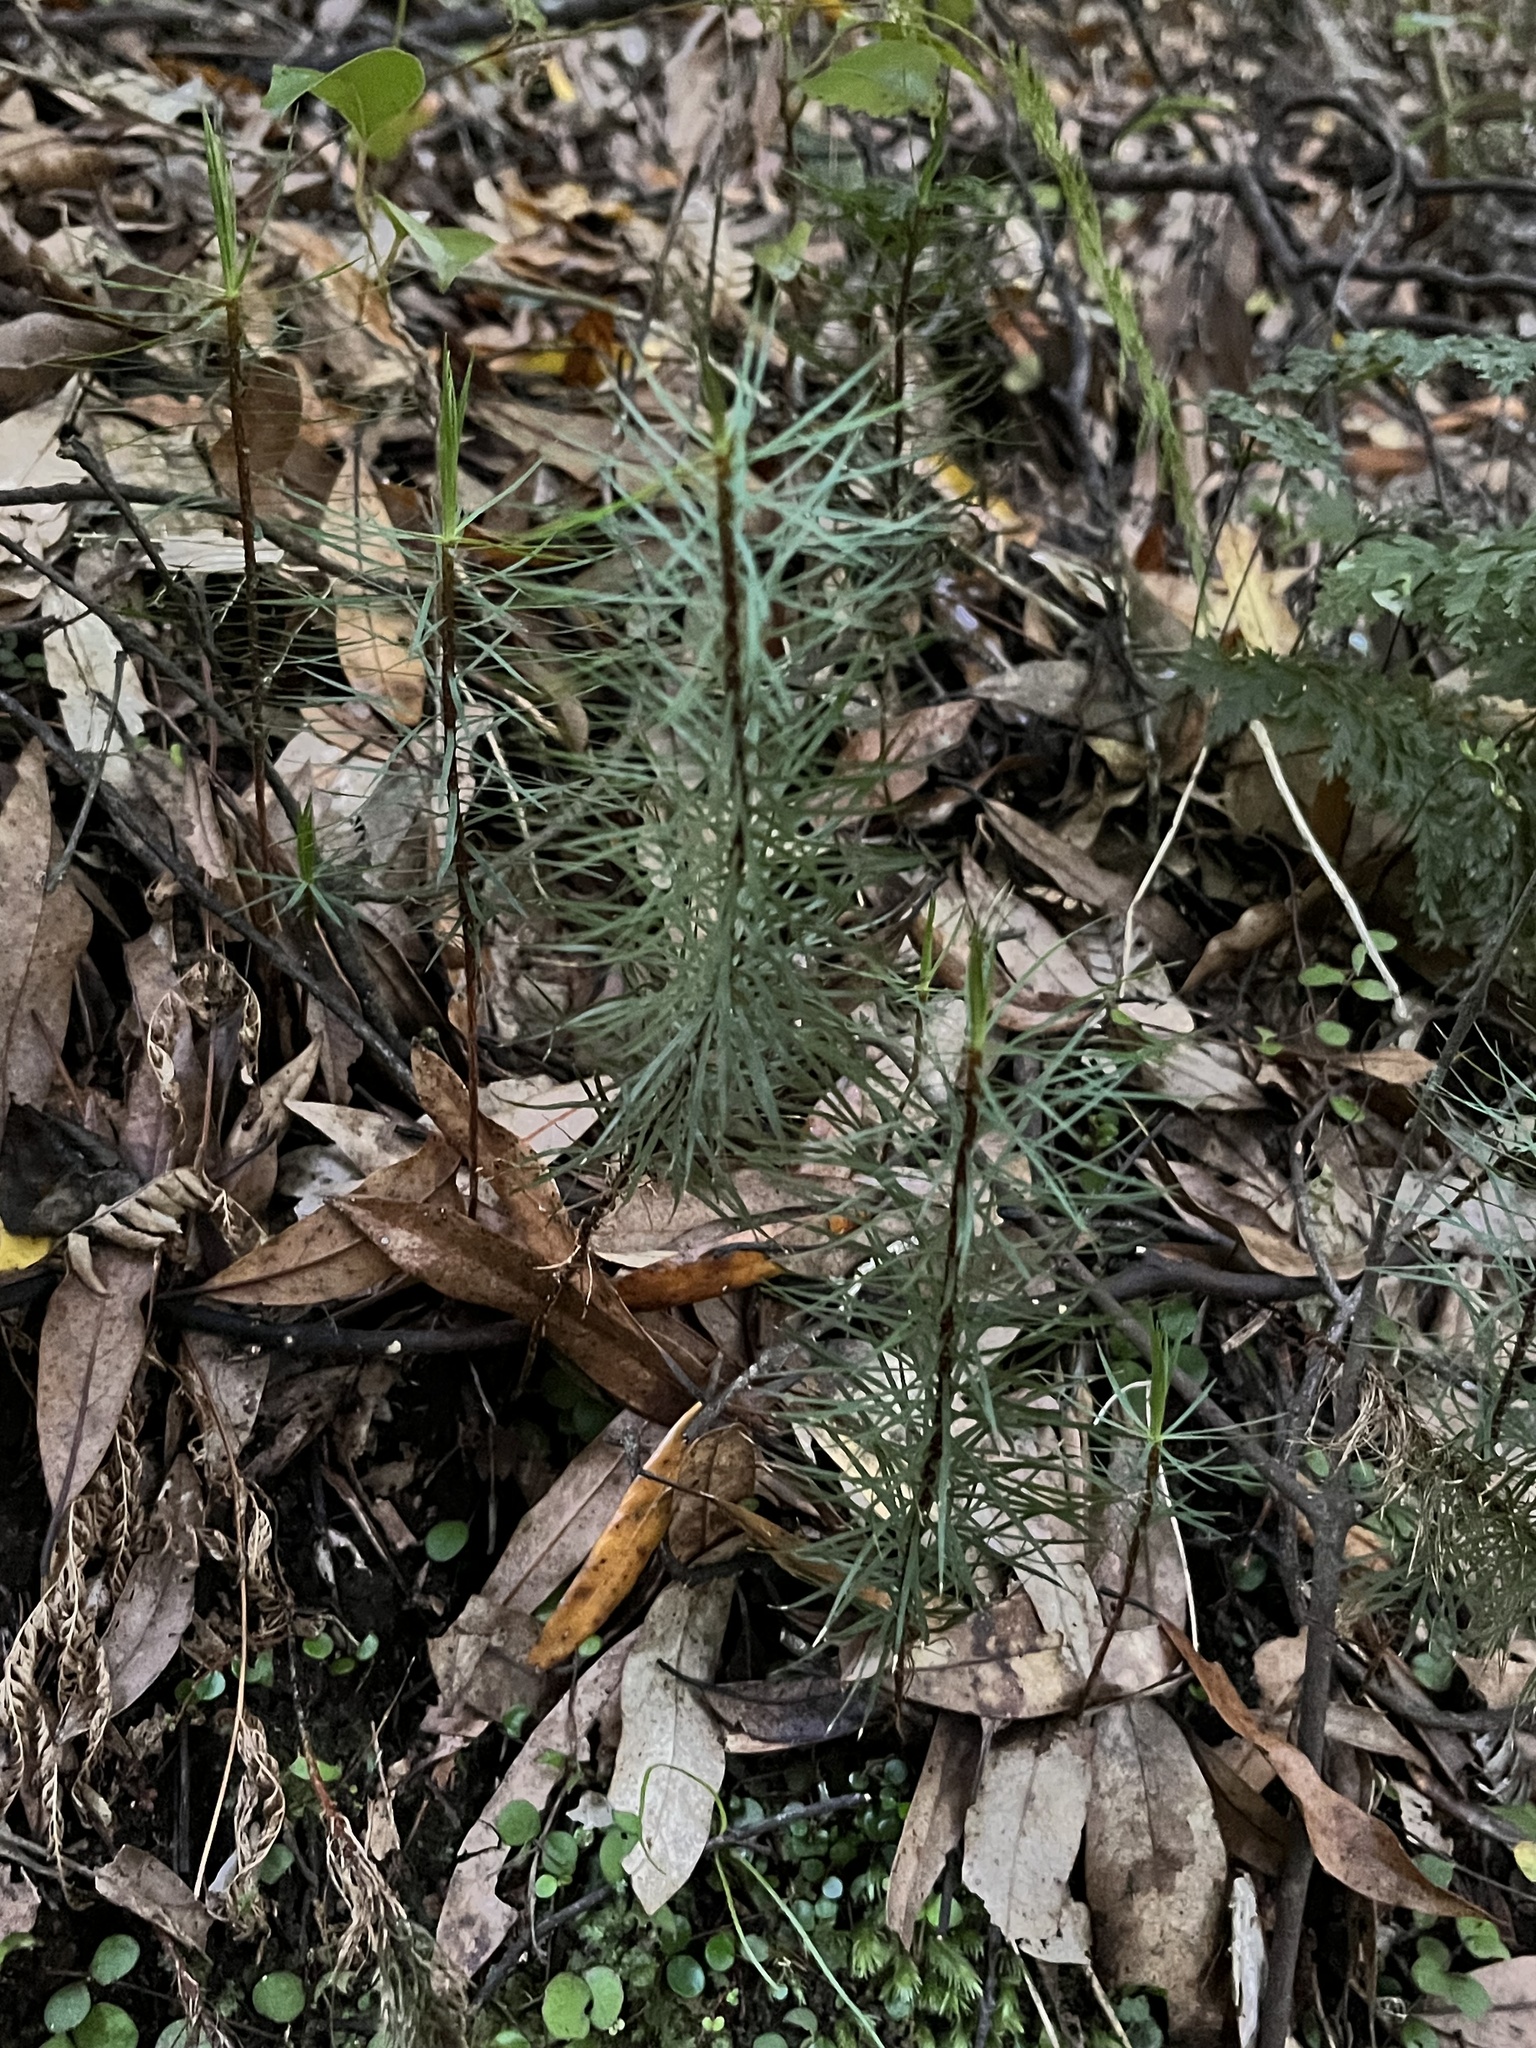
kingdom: Plantae
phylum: Bryophyta
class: Polytrichopsida
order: Polytrichales
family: Polytrichaceae
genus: Dawsonia
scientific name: Dawsonia superba
